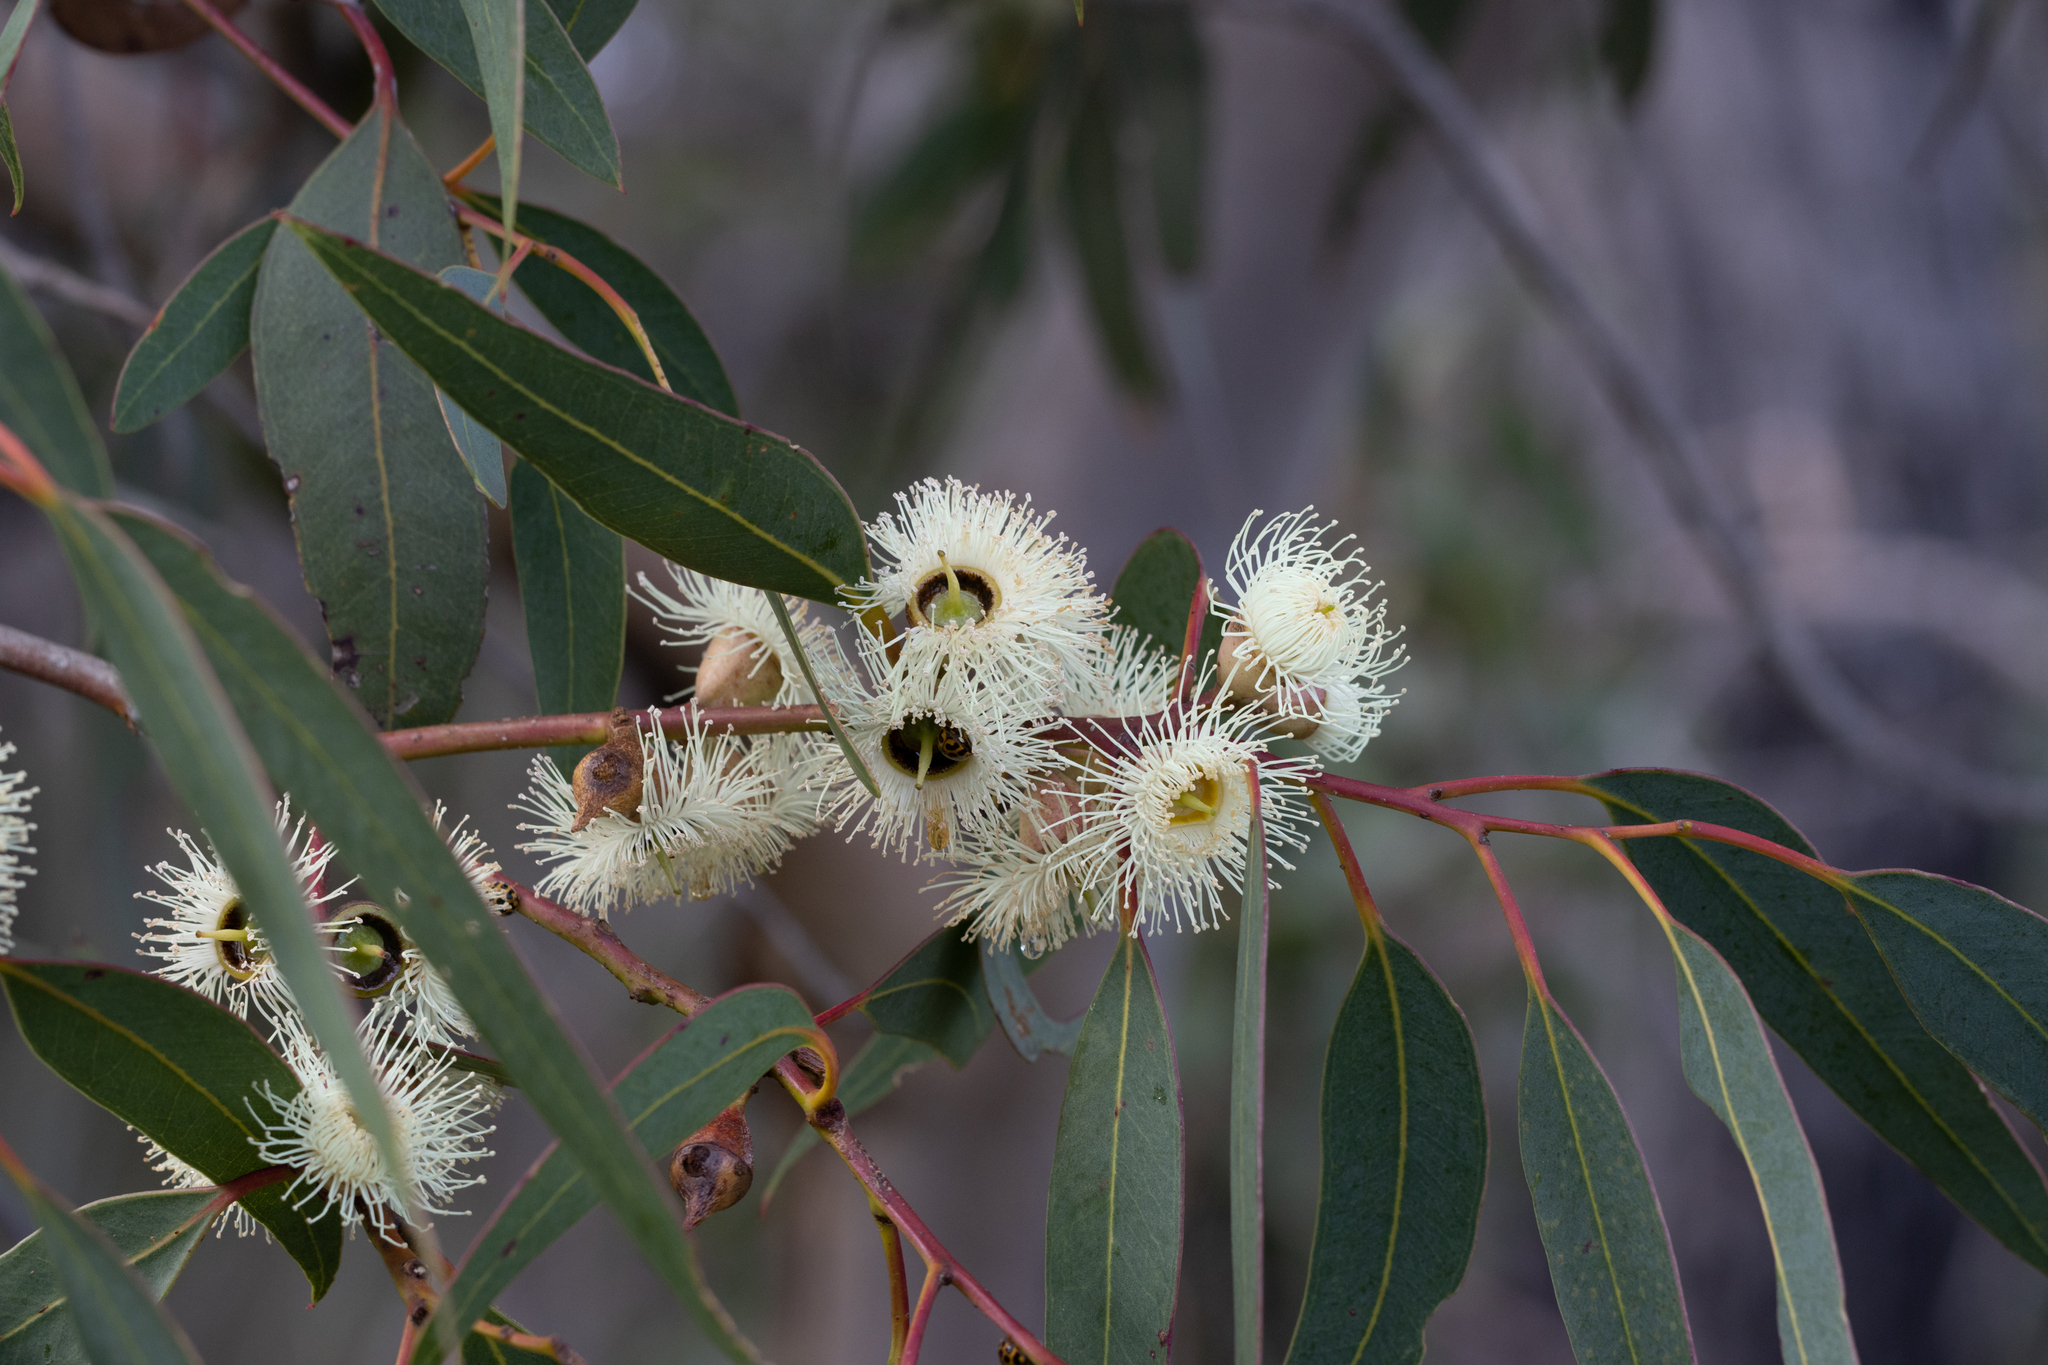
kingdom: Plantae
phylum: Tracheophyta
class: Magnoliopsida
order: Myrtales
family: Myrtaceae
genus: Eucalyptus
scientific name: Eucalyptus cosmophylla
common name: Bog-gum
